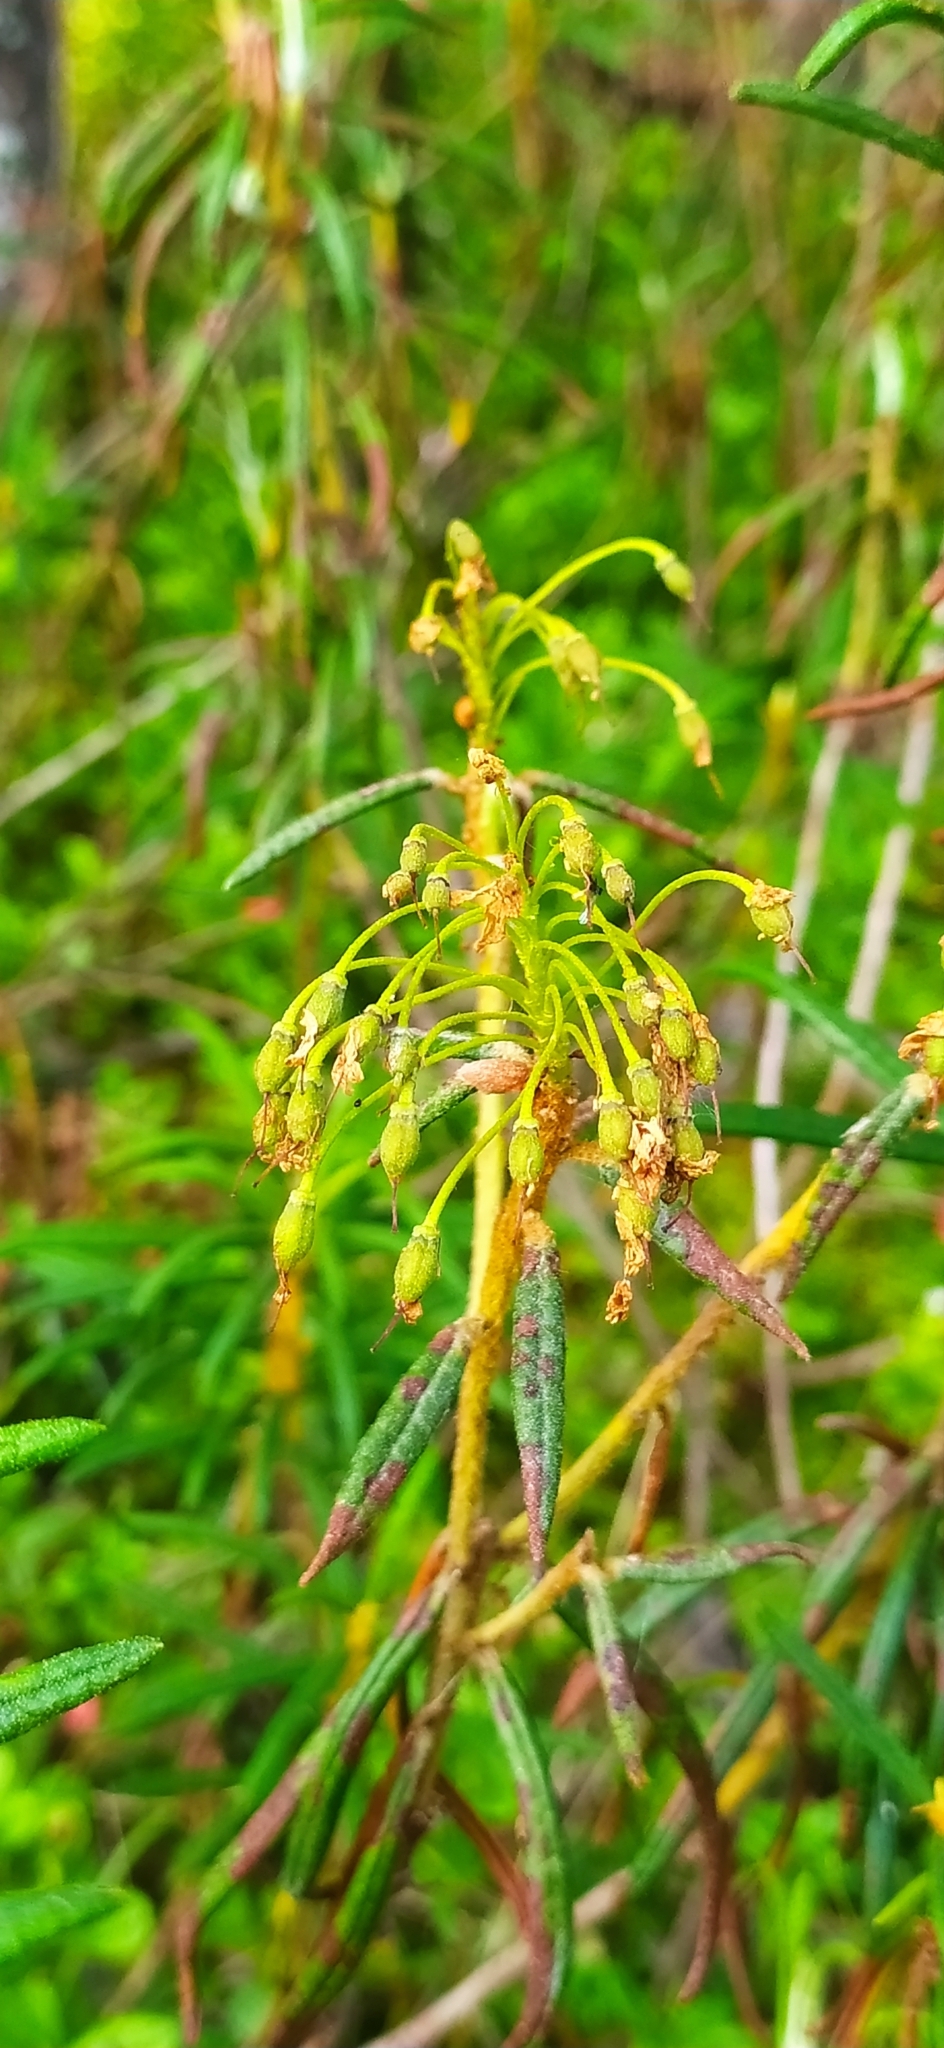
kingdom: Plantae
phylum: Tracheophyta
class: Magnoliopsida
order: Ericales
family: Ericaceae
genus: Rhododendron
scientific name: Rhododendron tomentosum
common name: Marsh labrador tea
